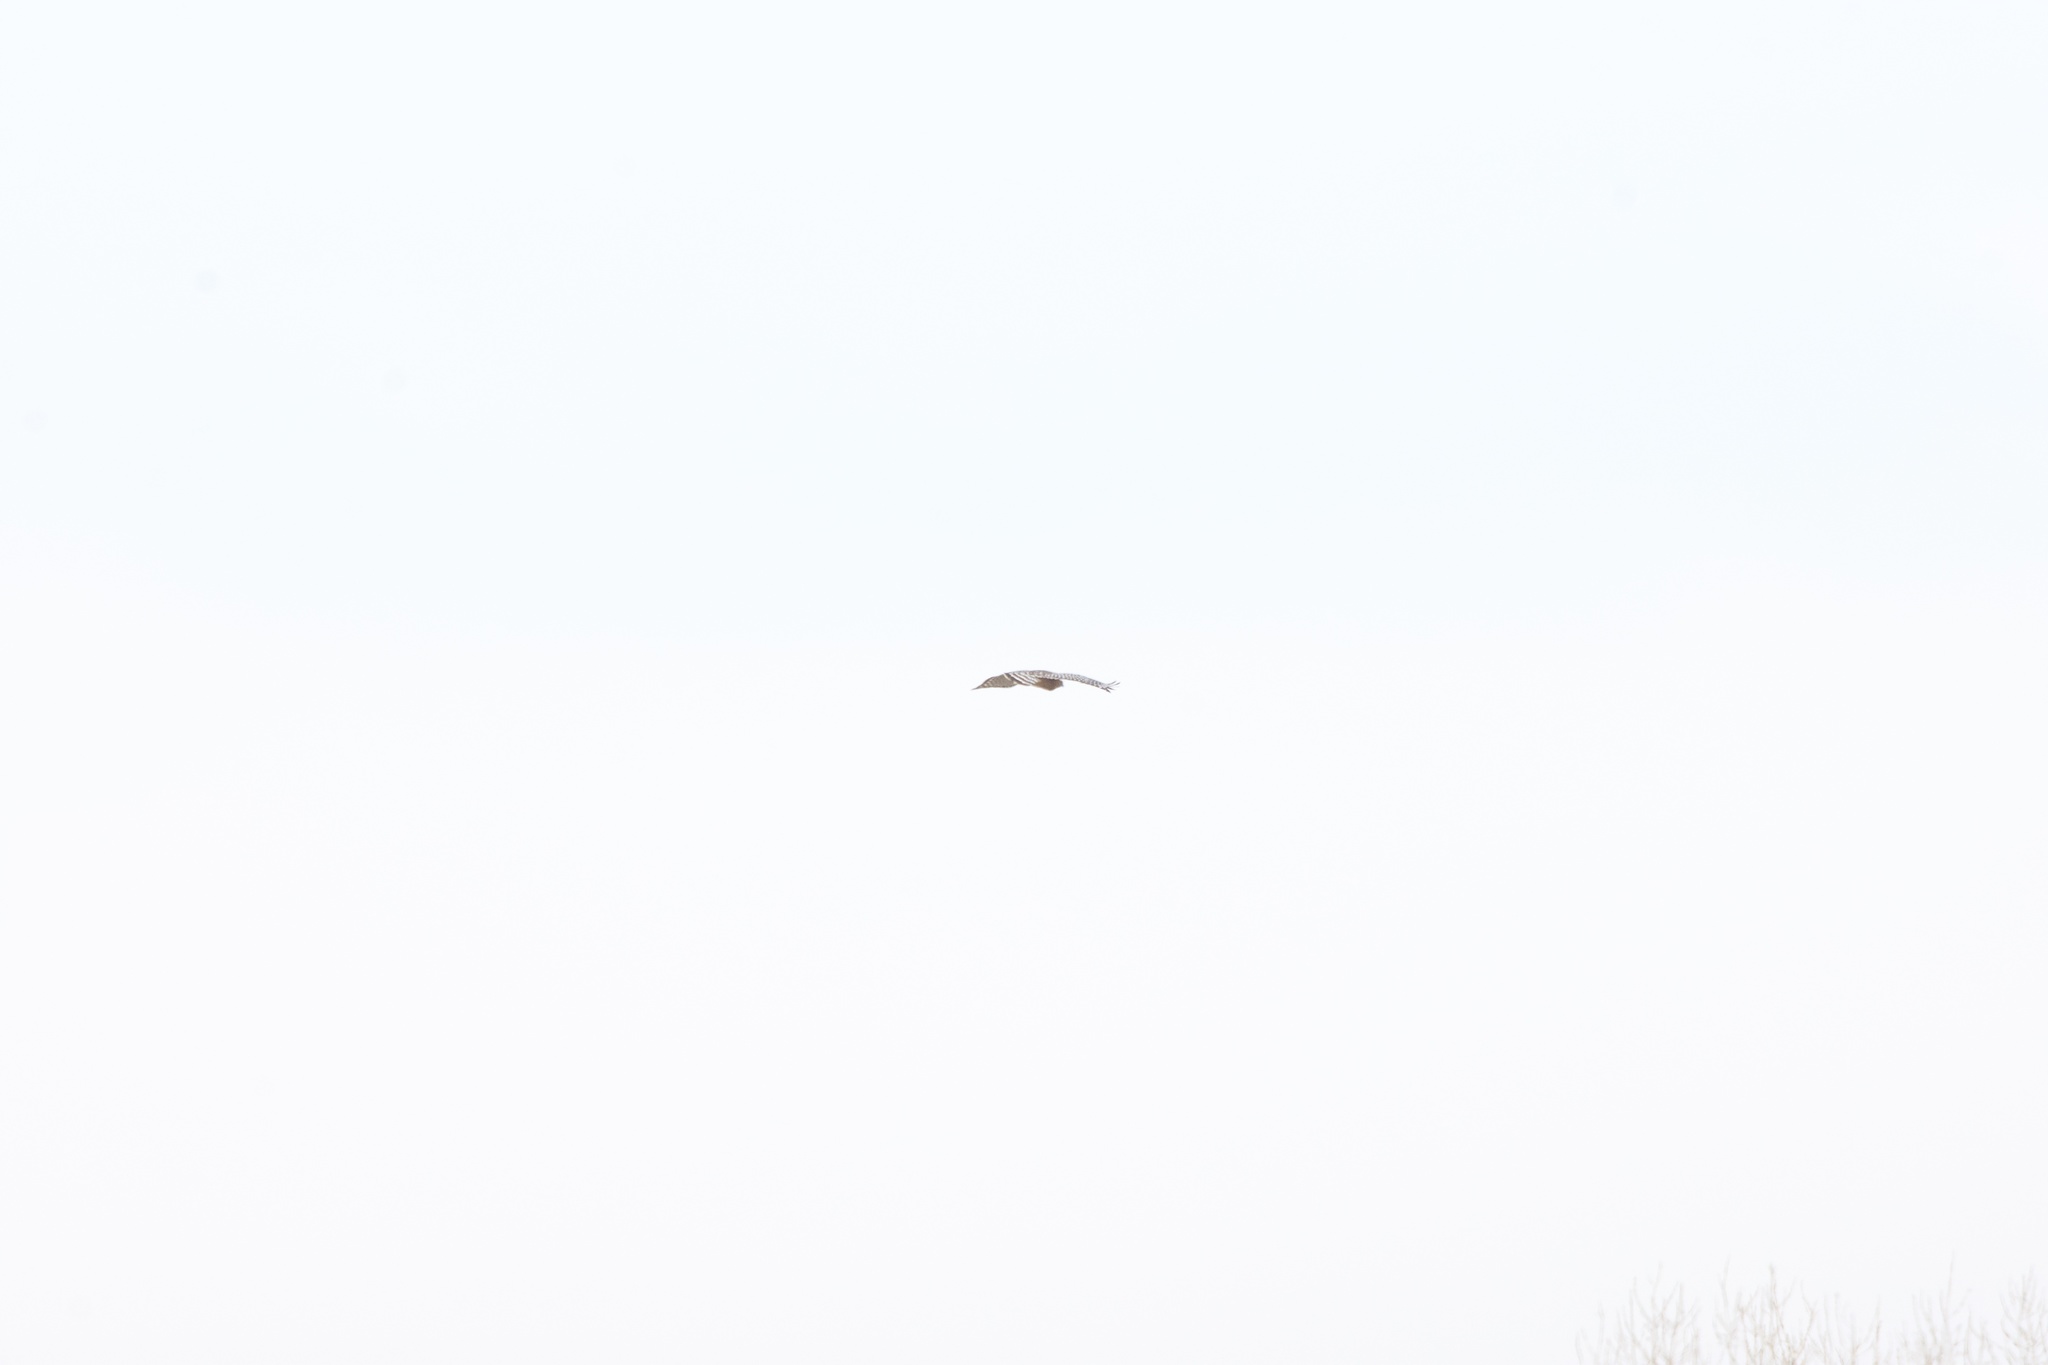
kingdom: Animalia
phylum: Chordata
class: Aves
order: Accipitriformes
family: Accipitridae
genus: Buteo
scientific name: Buteo lineatus
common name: Red-shouldered hawk
